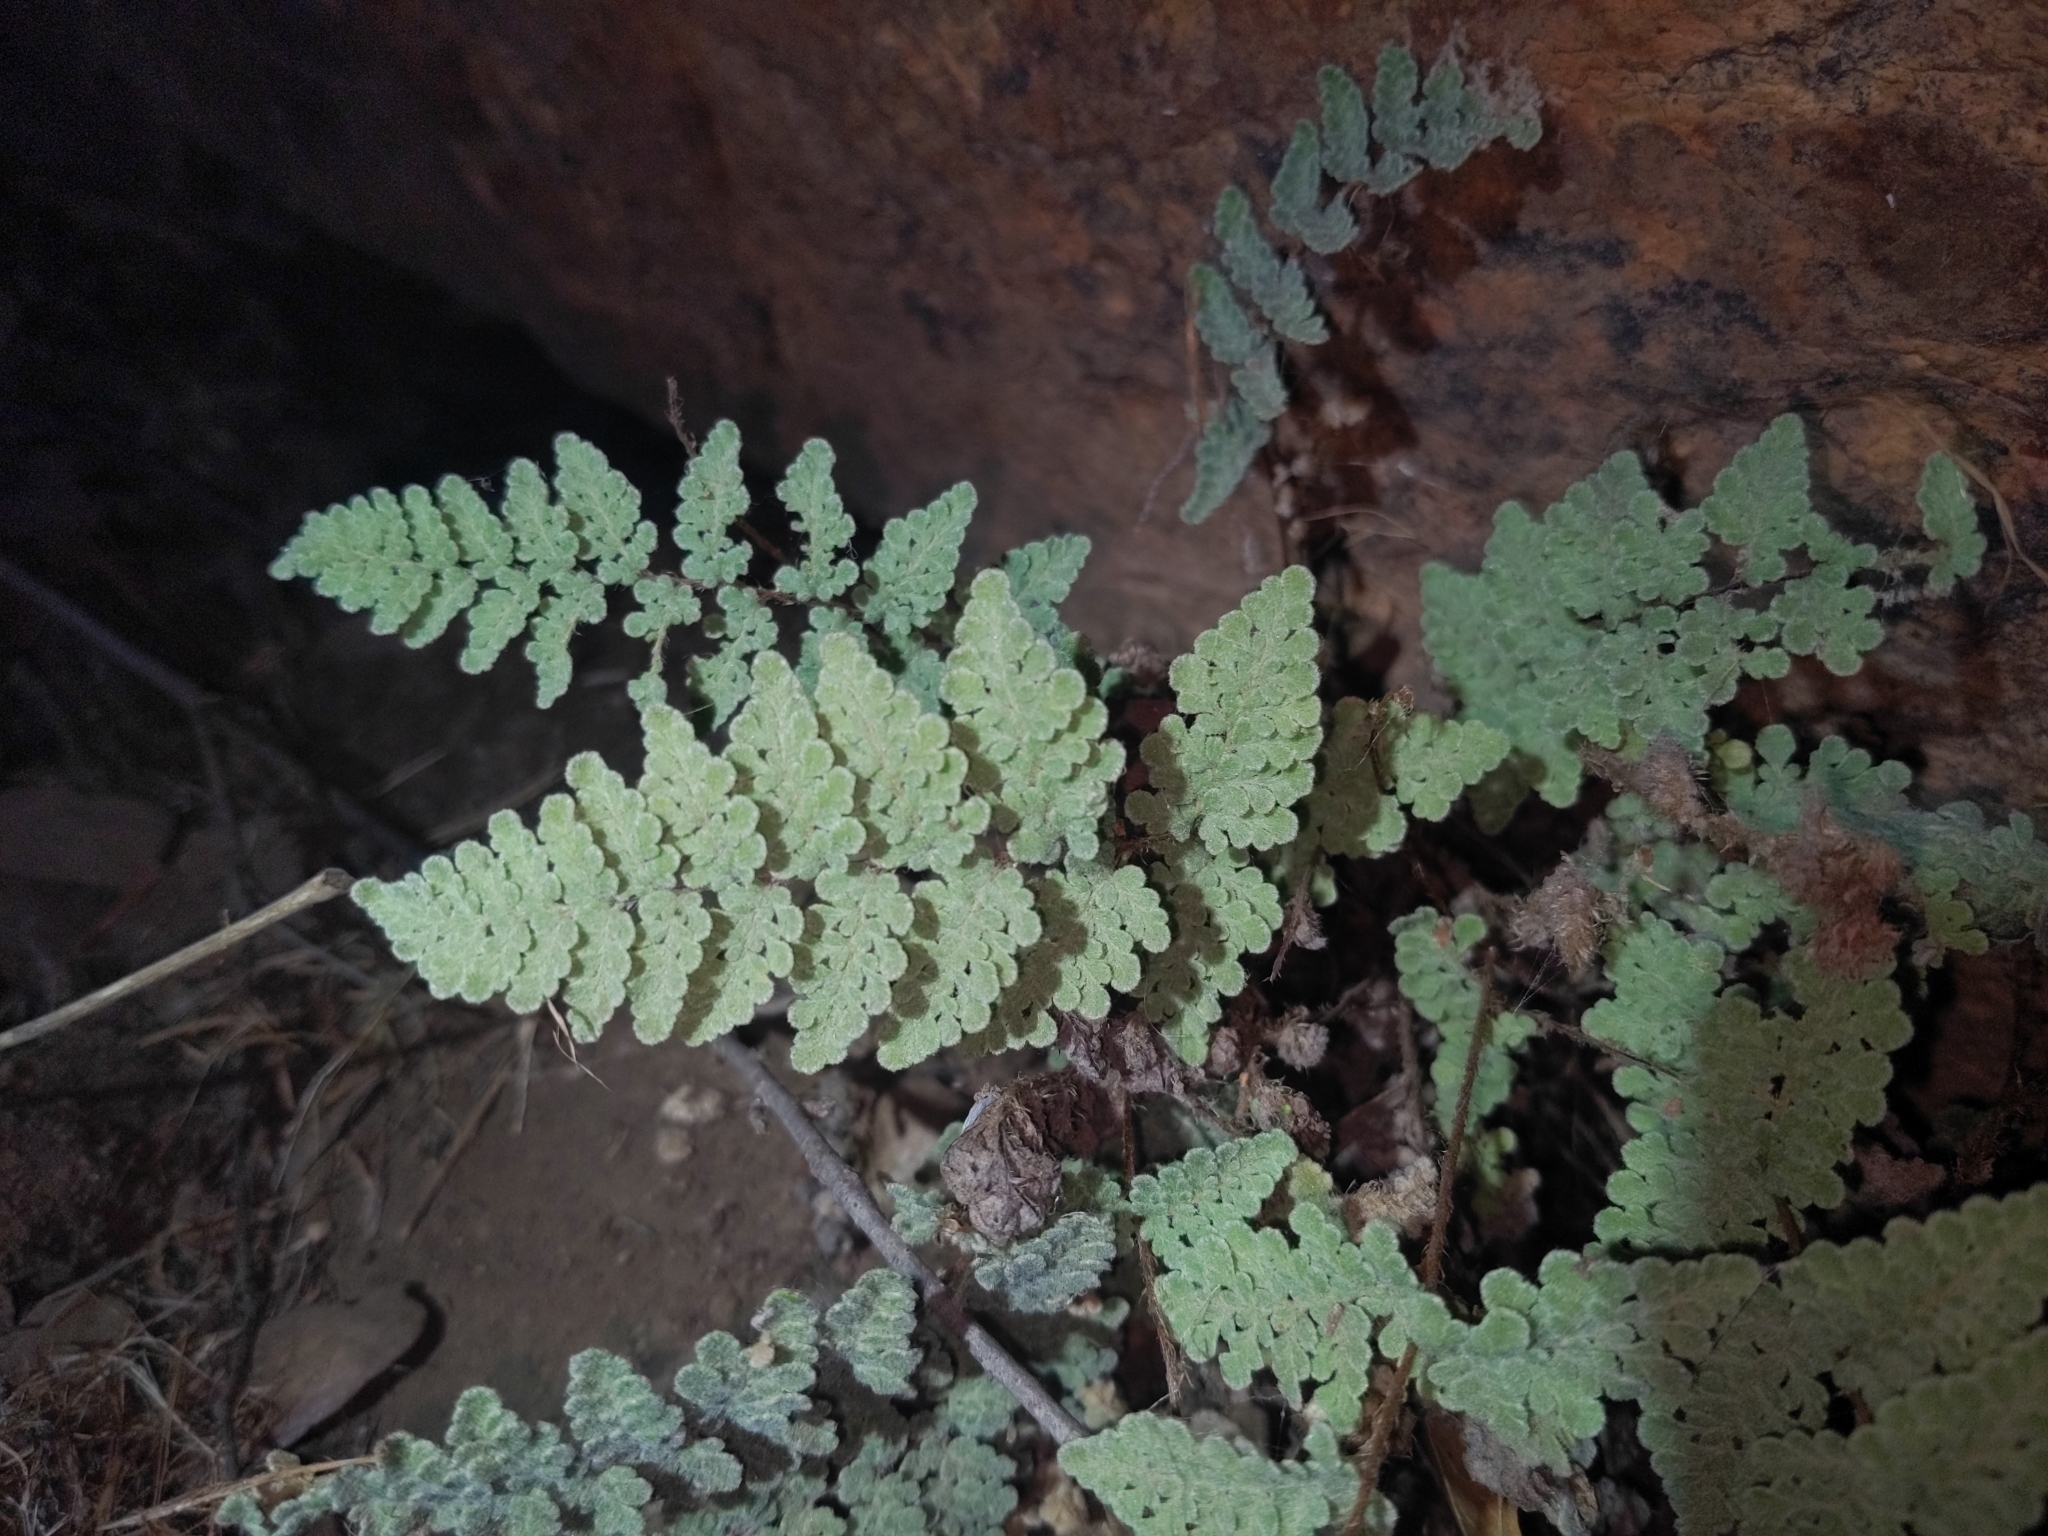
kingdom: Plantae
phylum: Tracheophyta
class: Polypodiopsida
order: Polypodiales
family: Pteridaceae
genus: Myriopteris
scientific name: Myriopteris rufa
